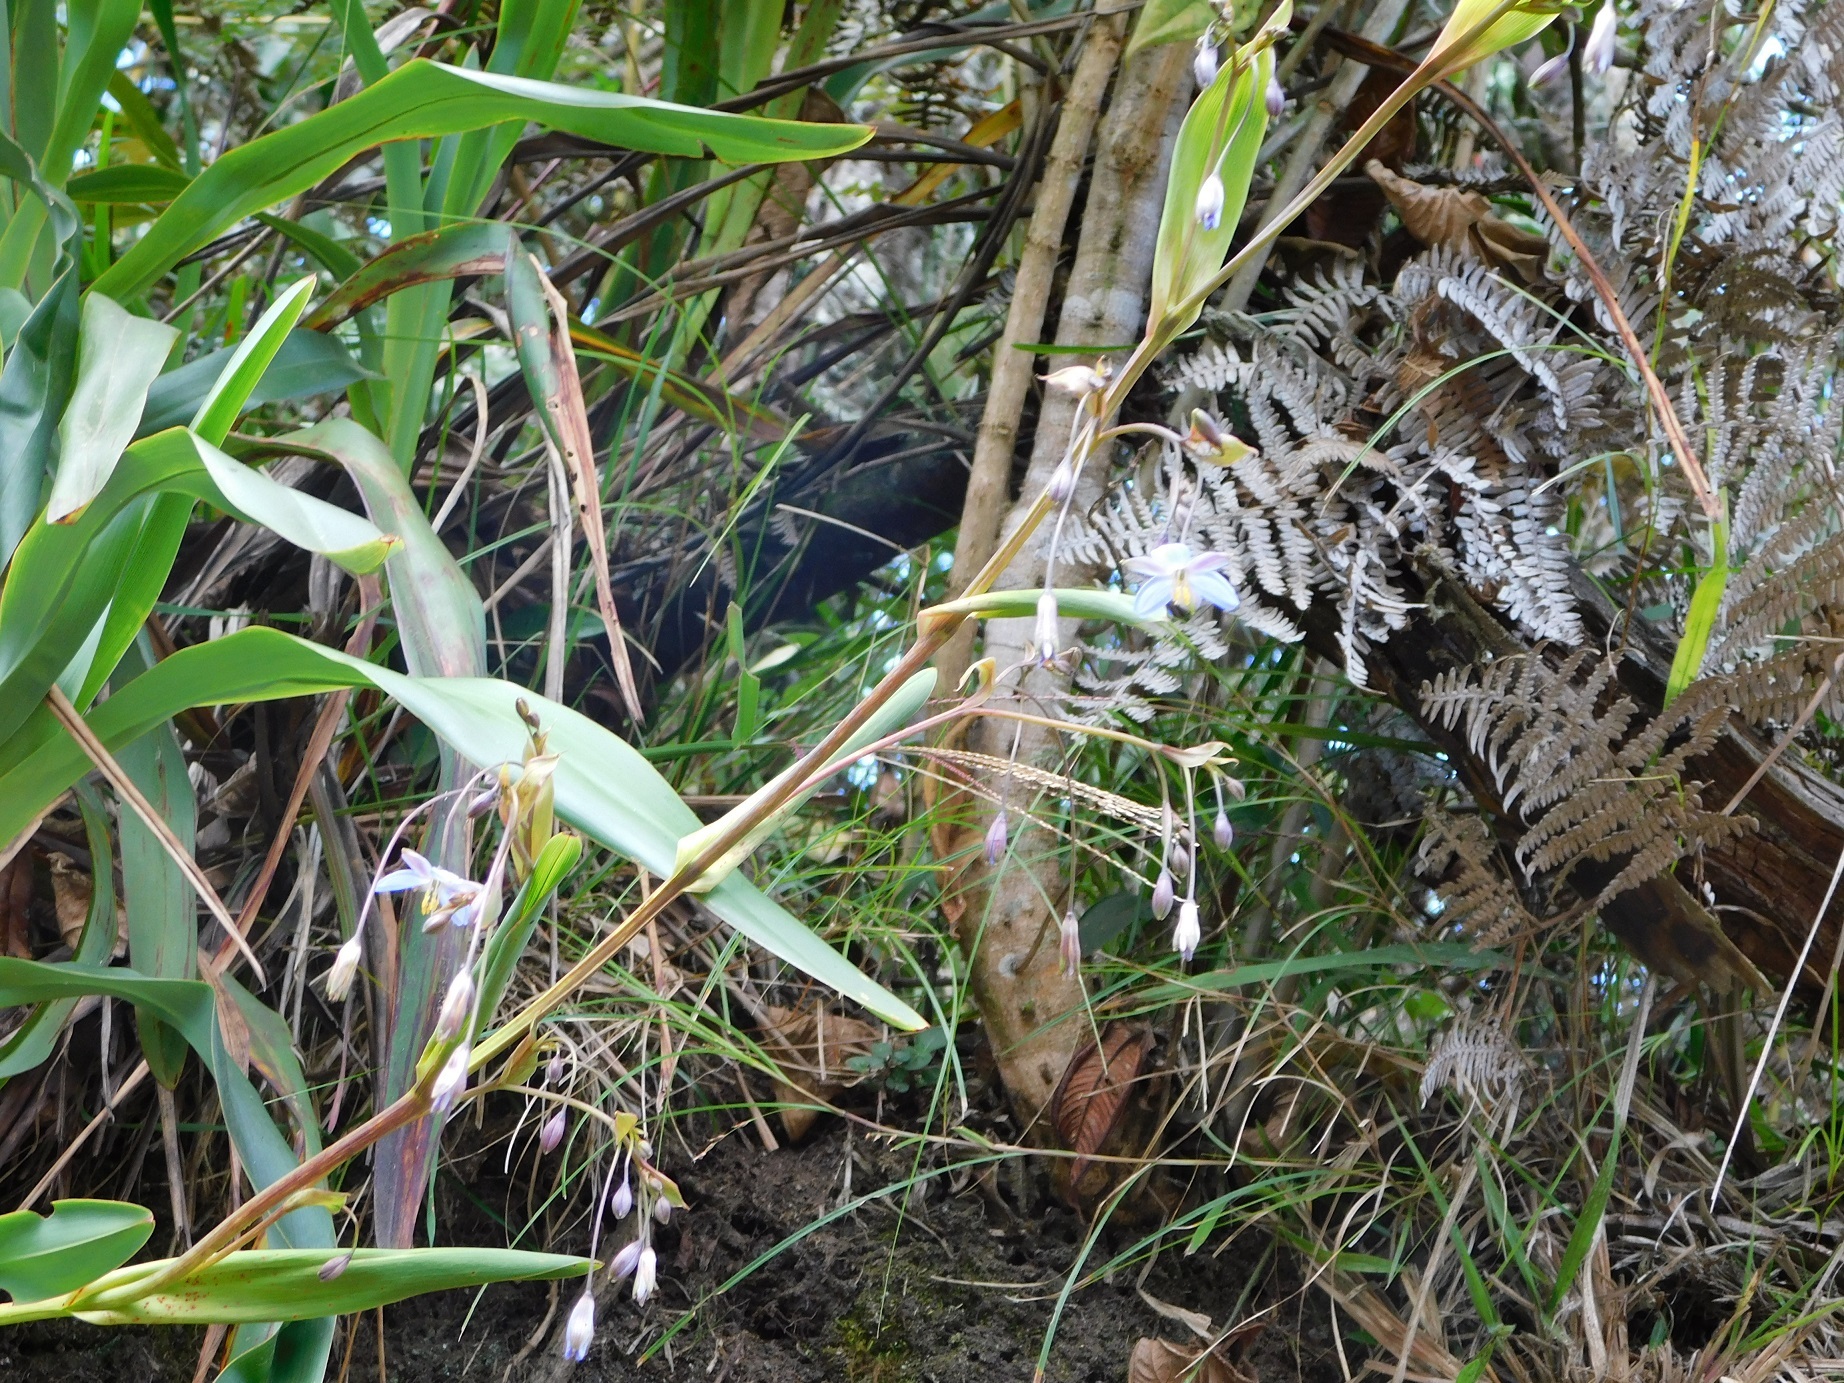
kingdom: Plantae
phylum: Tracheophyta
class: Liliopsida
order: Asparagales
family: Asphodelaceae
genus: Excremis
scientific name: Excremis coarctata
